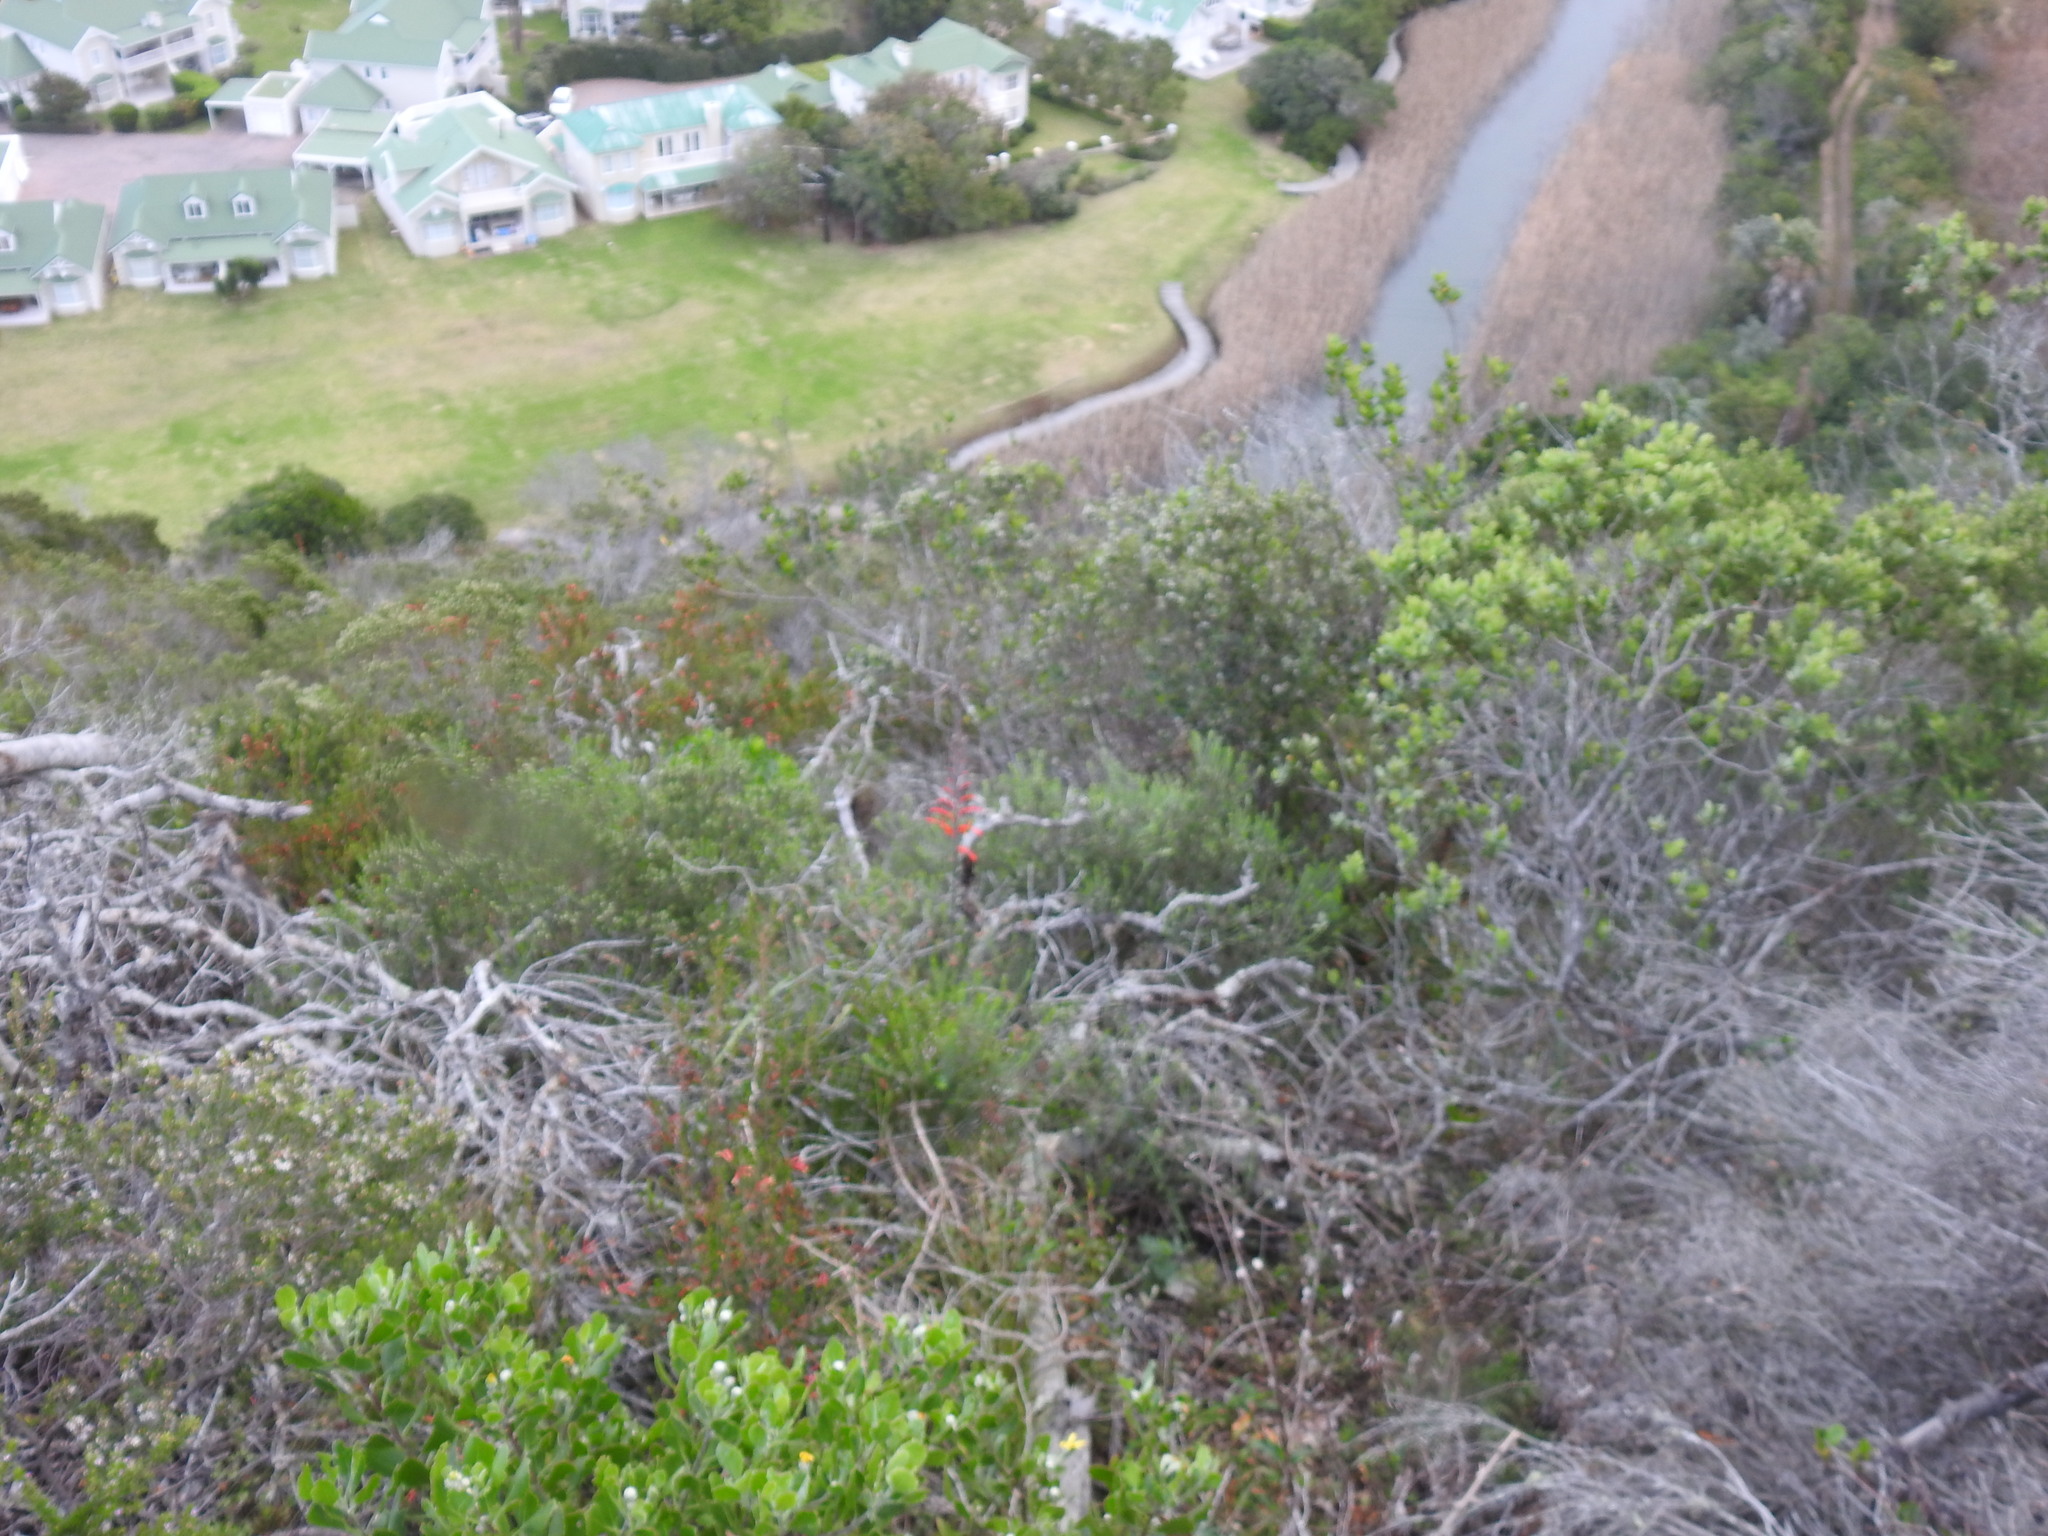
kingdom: Plantae
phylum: Tracheophyta
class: Liliopsida
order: Asparagales
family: Iridaceae
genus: Tritoniopsis
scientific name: Tritoniopsis caffra
